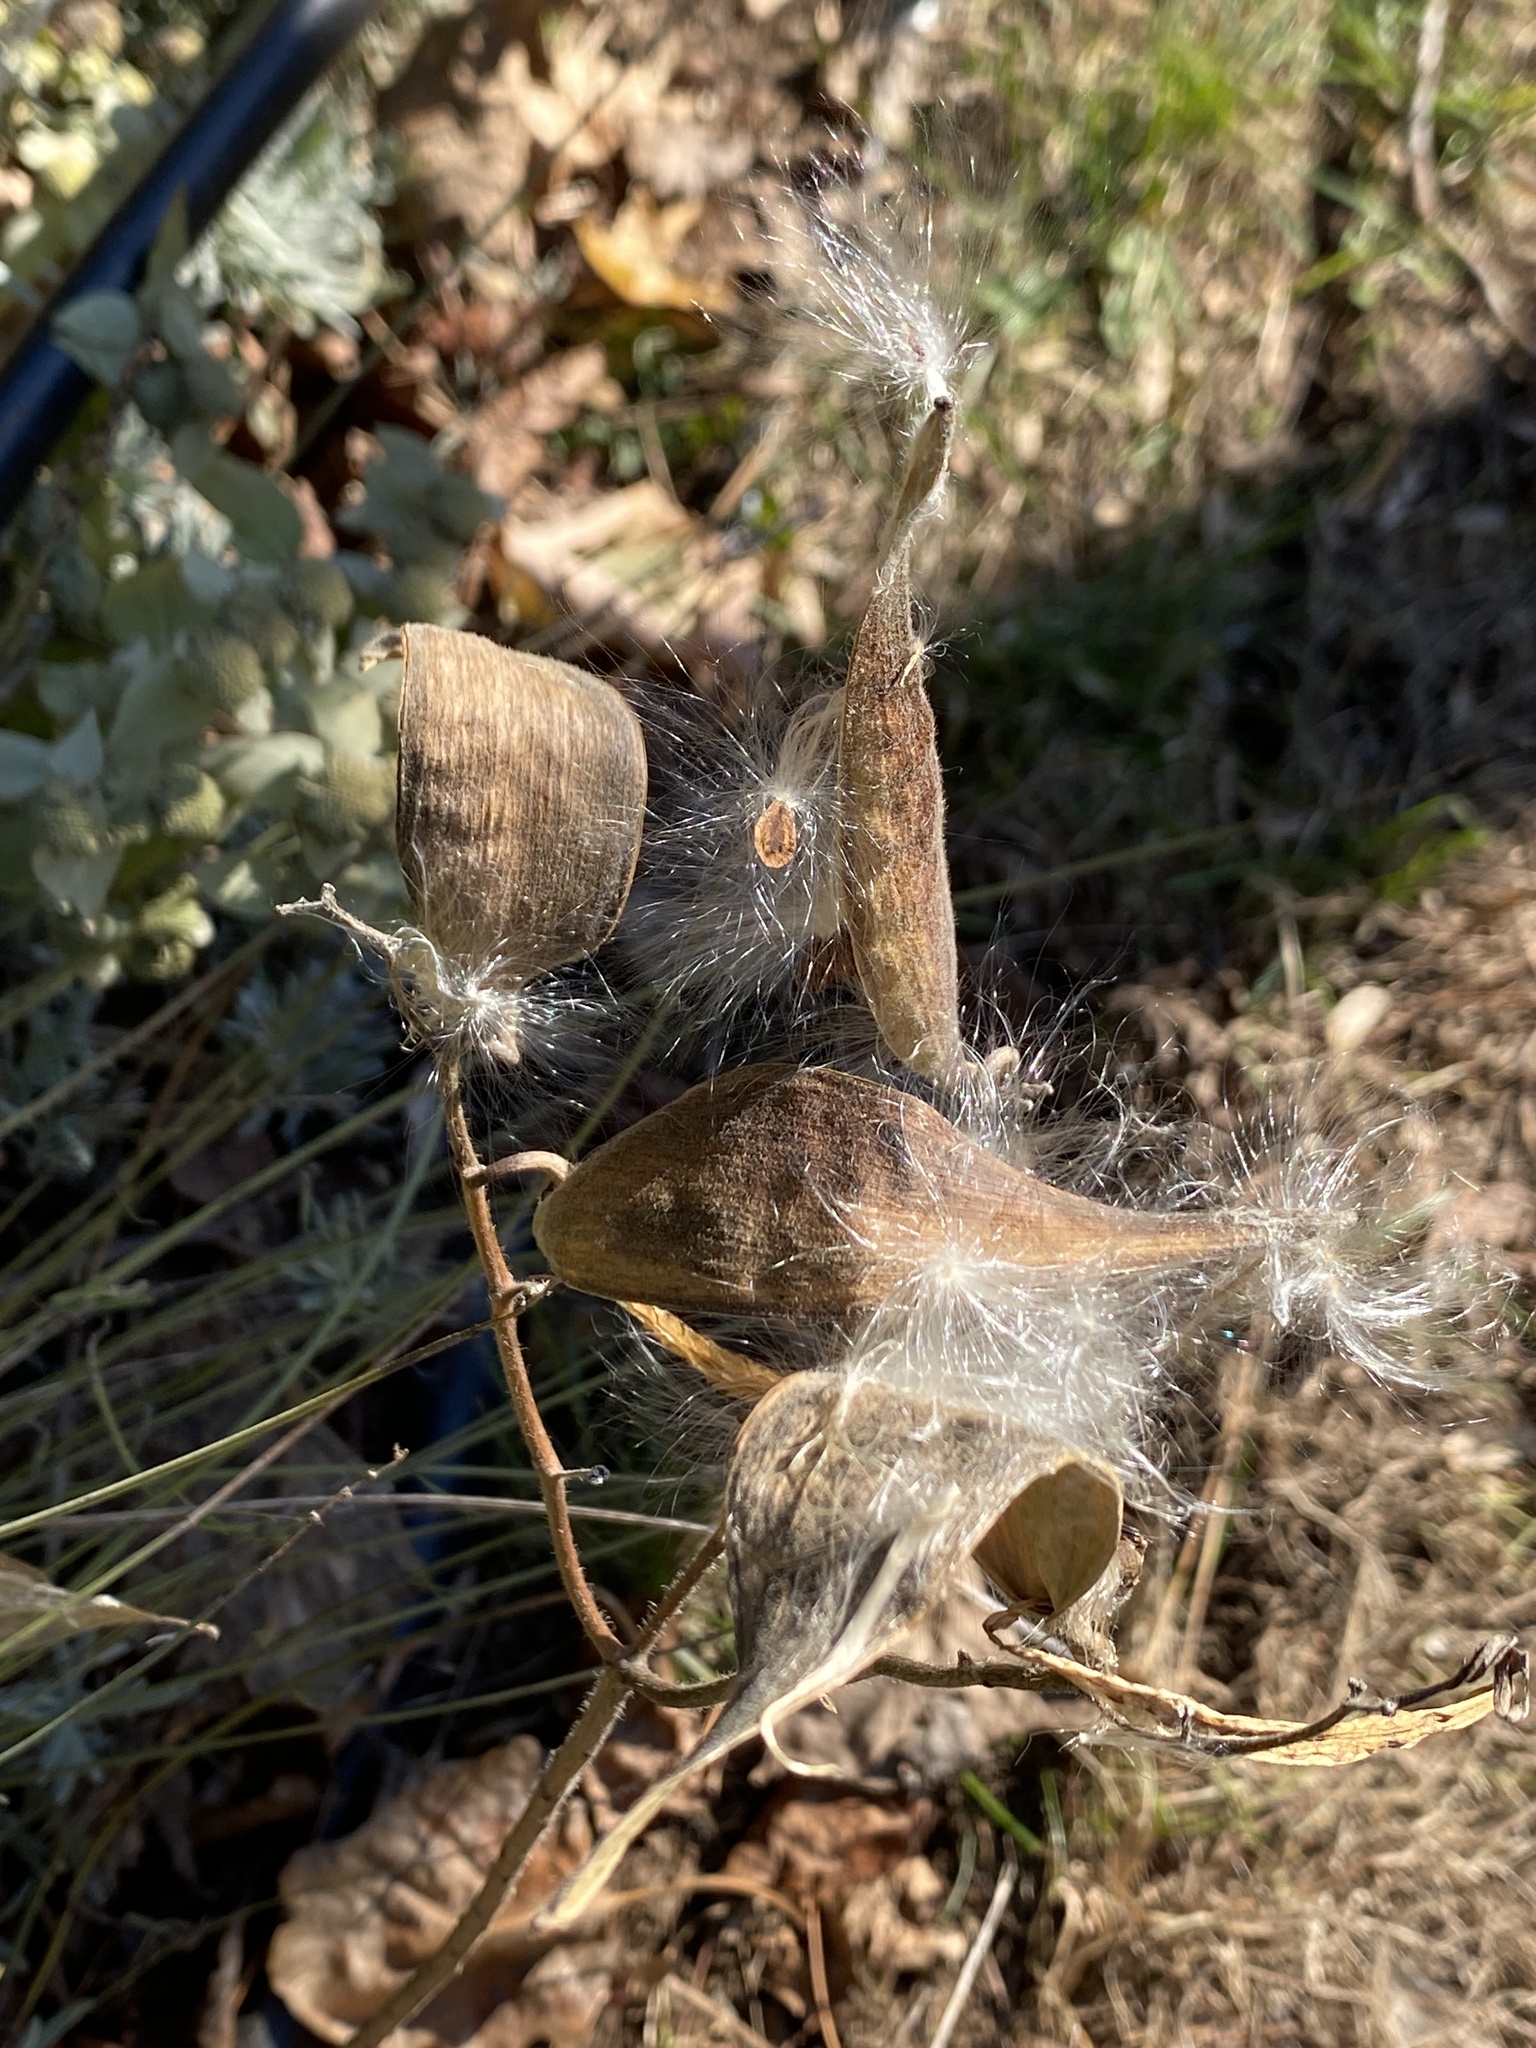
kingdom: Plantae
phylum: Tracheophyta
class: Magnoliopsida
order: Gentianales
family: Apocynaceae
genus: Asclepias
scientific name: Asclepias tuberosa
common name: Butterfly milkweed
